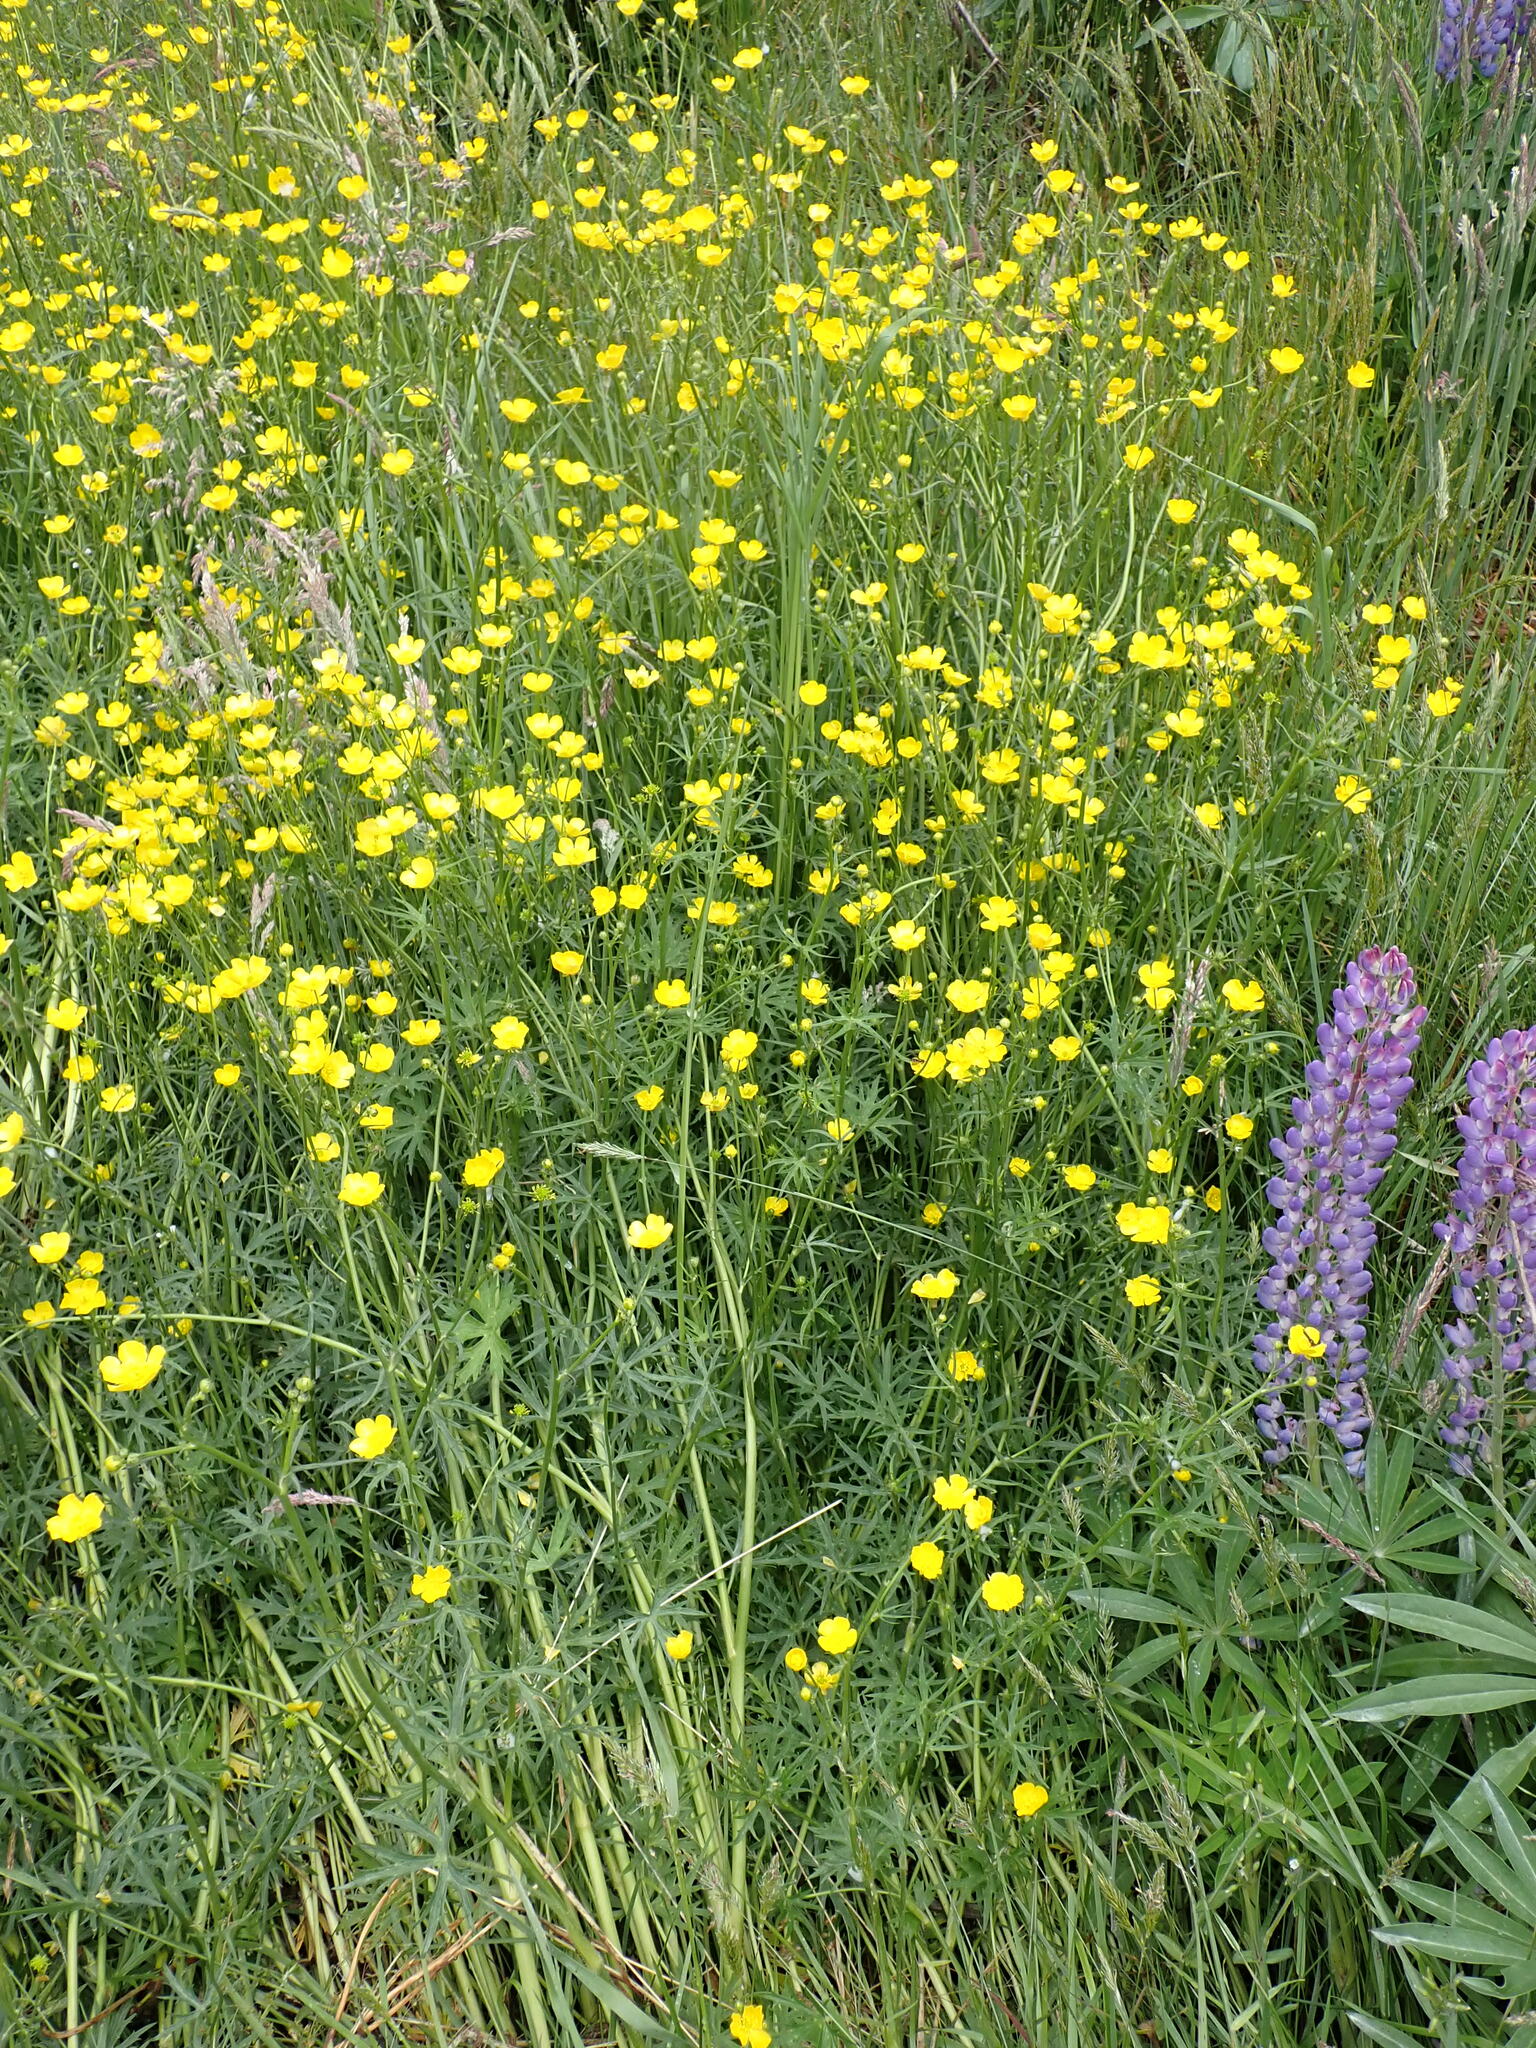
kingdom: Plantae
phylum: Tracheophyta
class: Magnoliopsida
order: Ranunculales
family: Ranunculaceae
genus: Ranunculus
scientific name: Ranunculus acris
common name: Meadow buttercup
